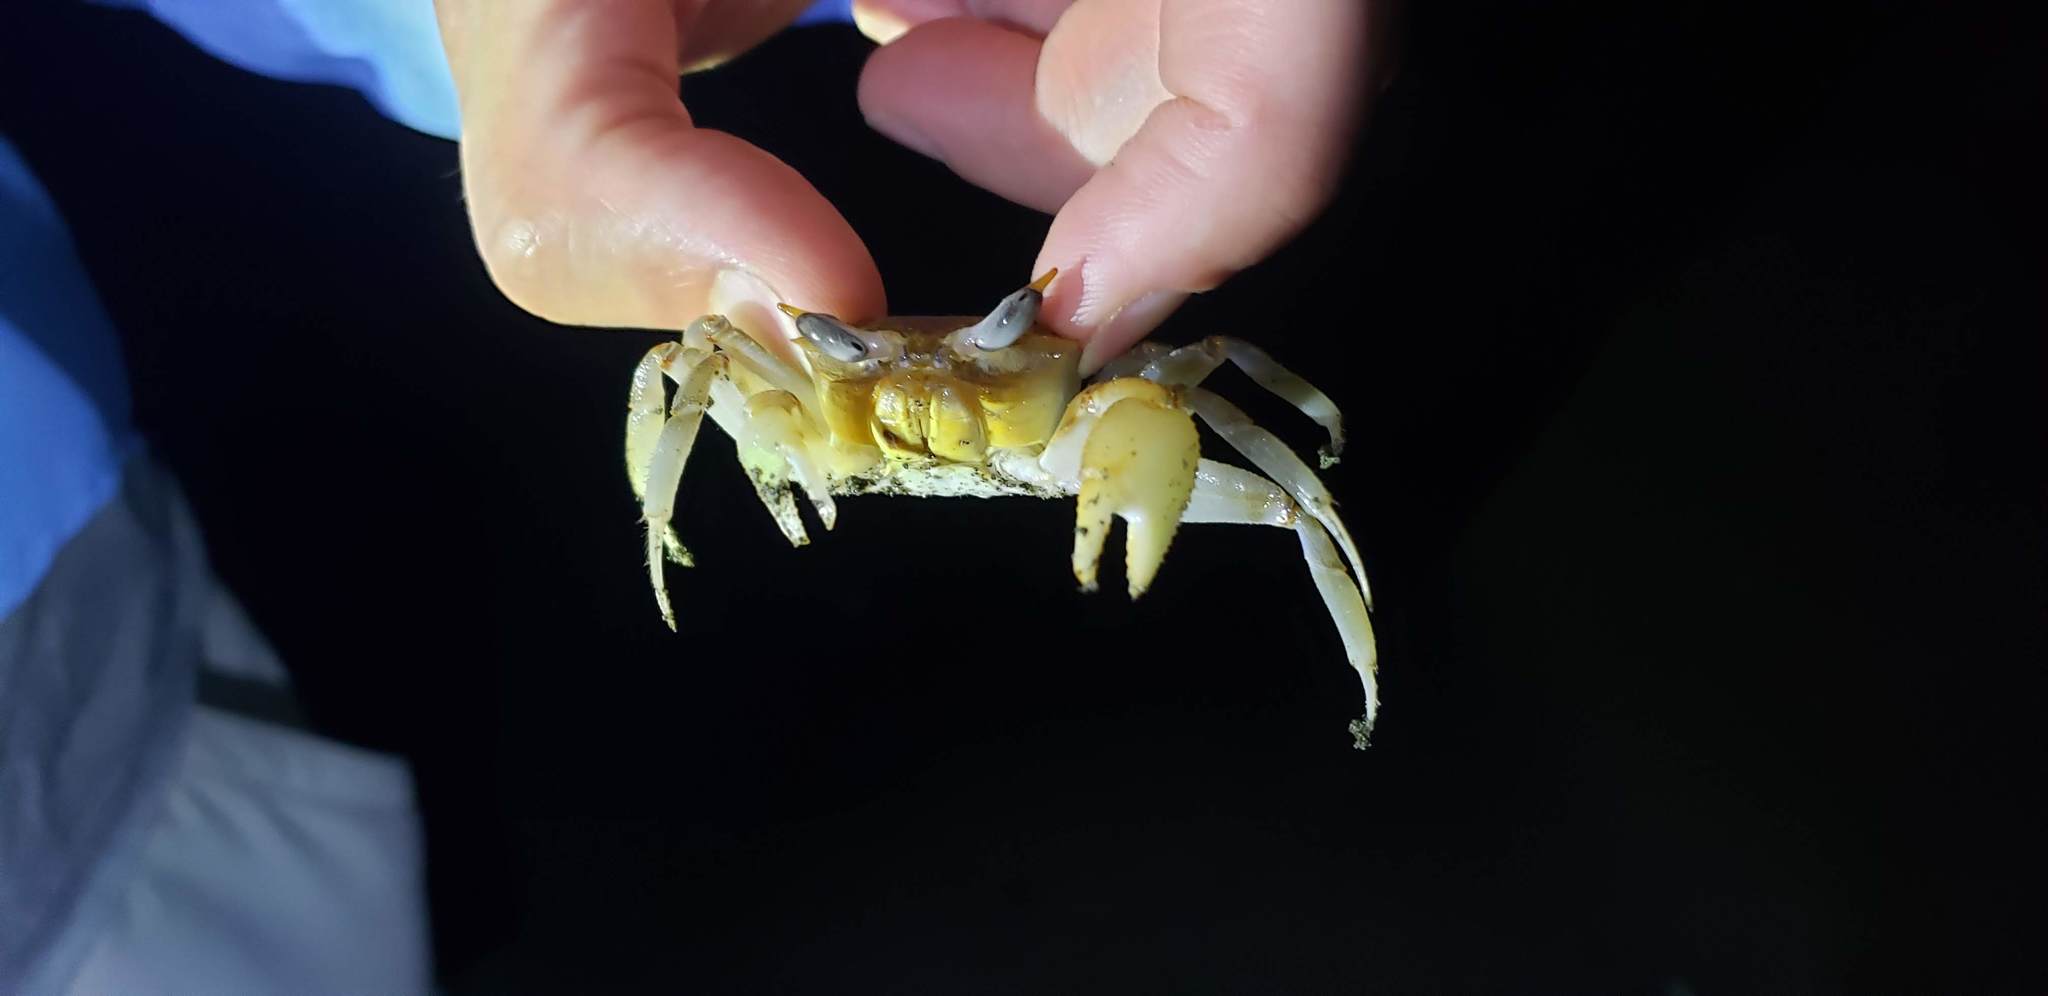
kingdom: Animalia
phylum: Arthropoda
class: Malacostraca
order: Decapoda
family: Ocypodidae
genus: Ocypode
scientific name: Ocypode gaudichaudii
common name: Pacific ghost crab
